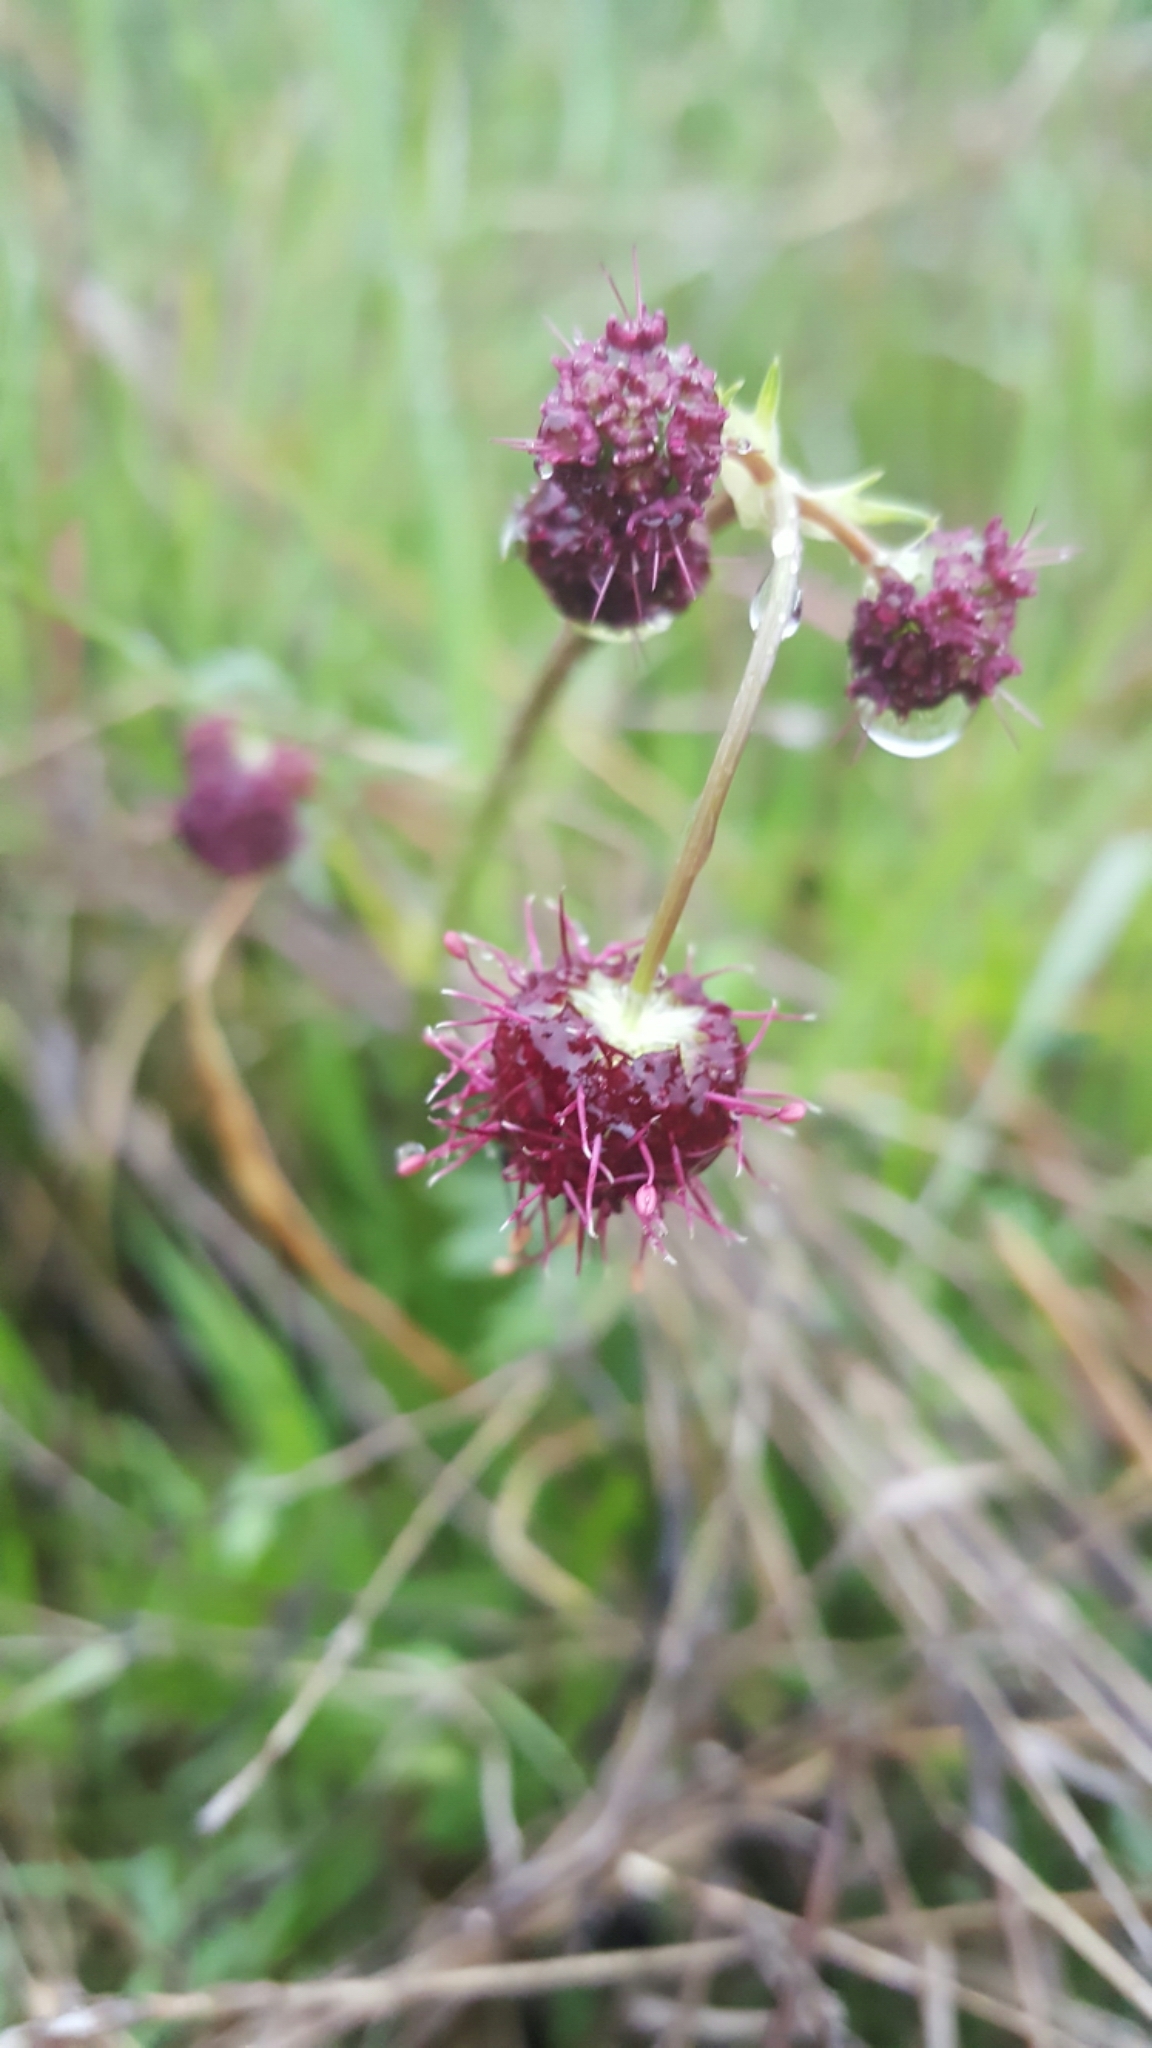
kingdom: Plantae
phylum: Tracheophyta
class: Magnoliopsida
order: Apiales
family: Apiaceae
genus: Sanicula
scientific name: Sanicula bipinnatifida
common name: Shoe-buttons
